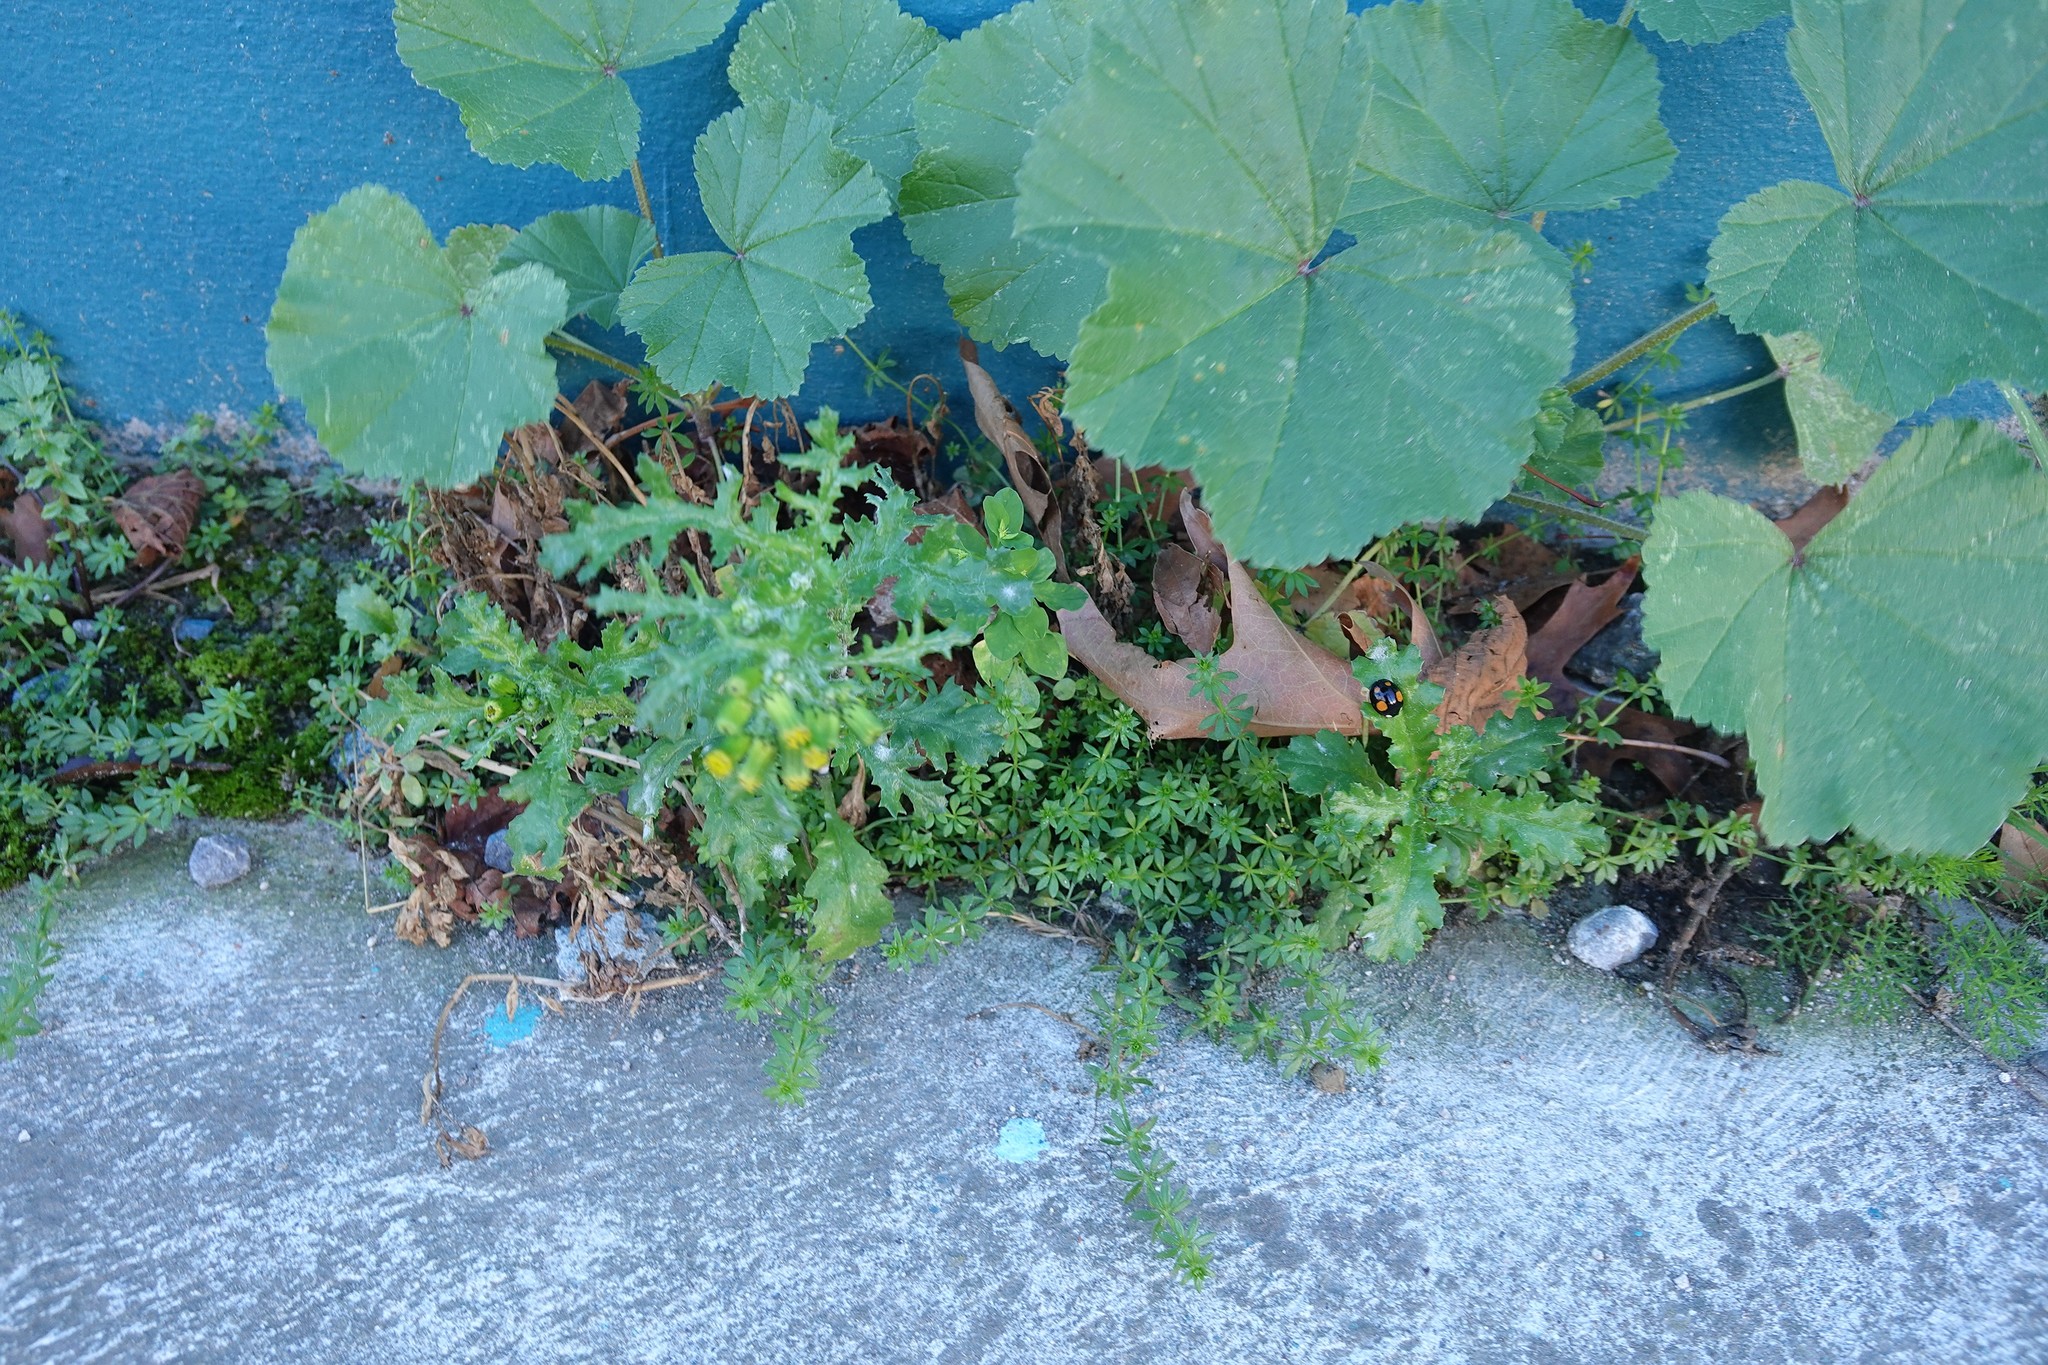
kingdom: Plantae
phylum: Tracheophyta
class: Magnoliopsida
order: Asterales
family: Asteraceae
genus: Senecio
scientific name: Senecio vulgaris
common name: Old-man-in-the-spring
